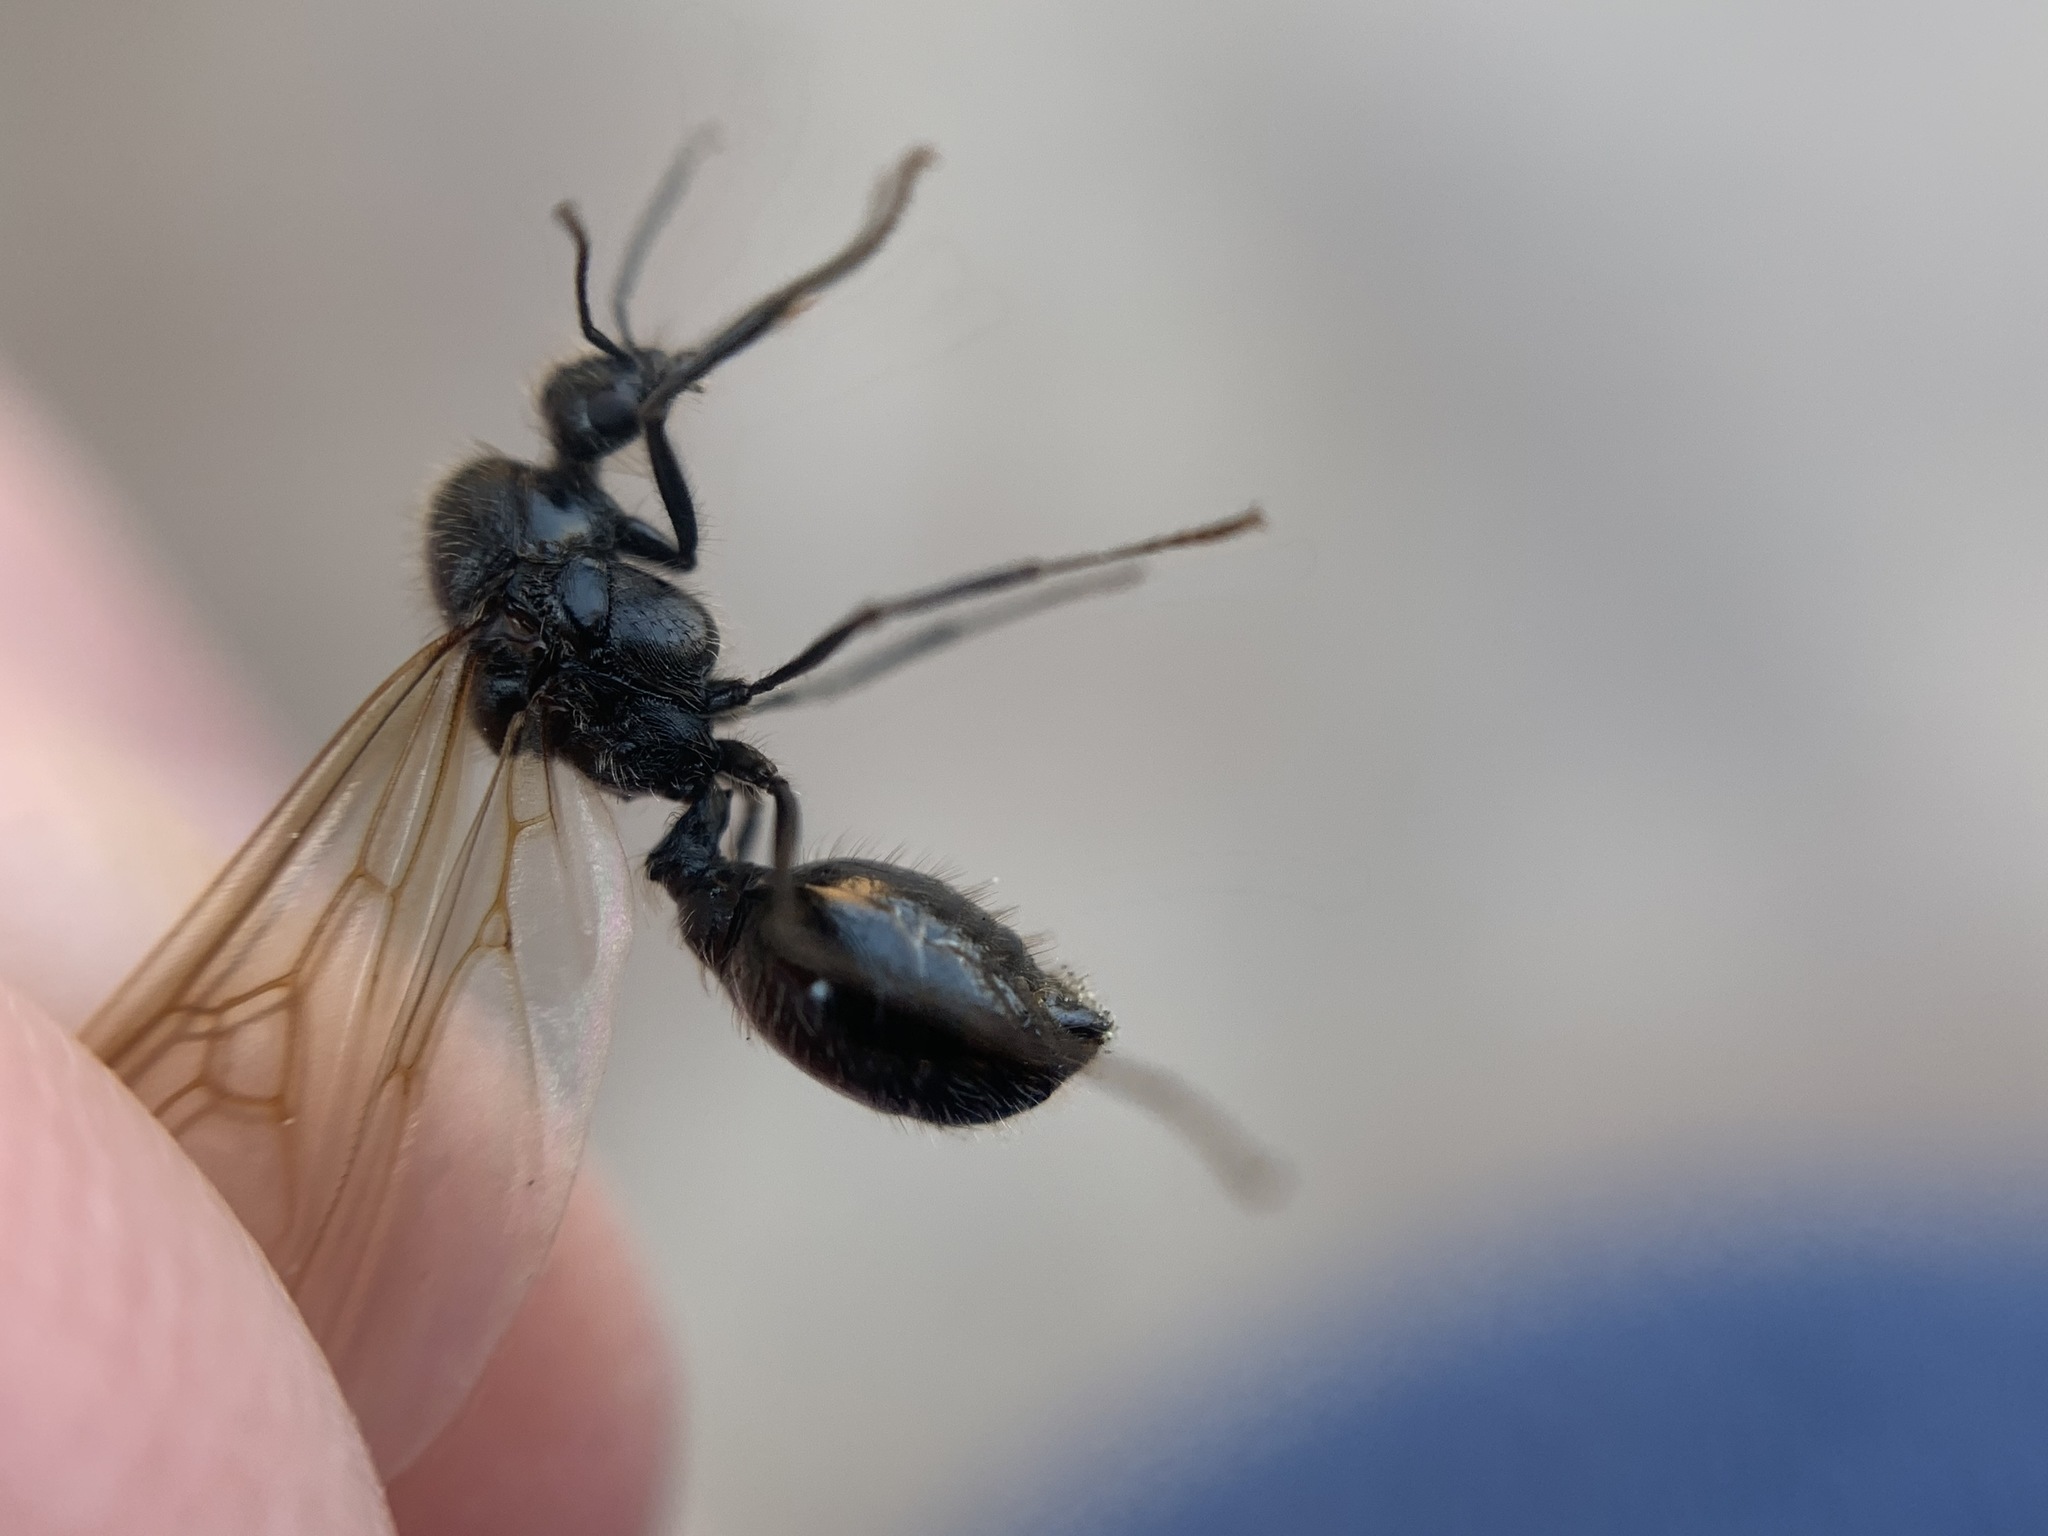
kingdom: Animalia
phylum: Arthropoda
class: Insecta
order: Hymenoptera
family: Formicidae
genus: Messor
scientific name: Messor pergandei
